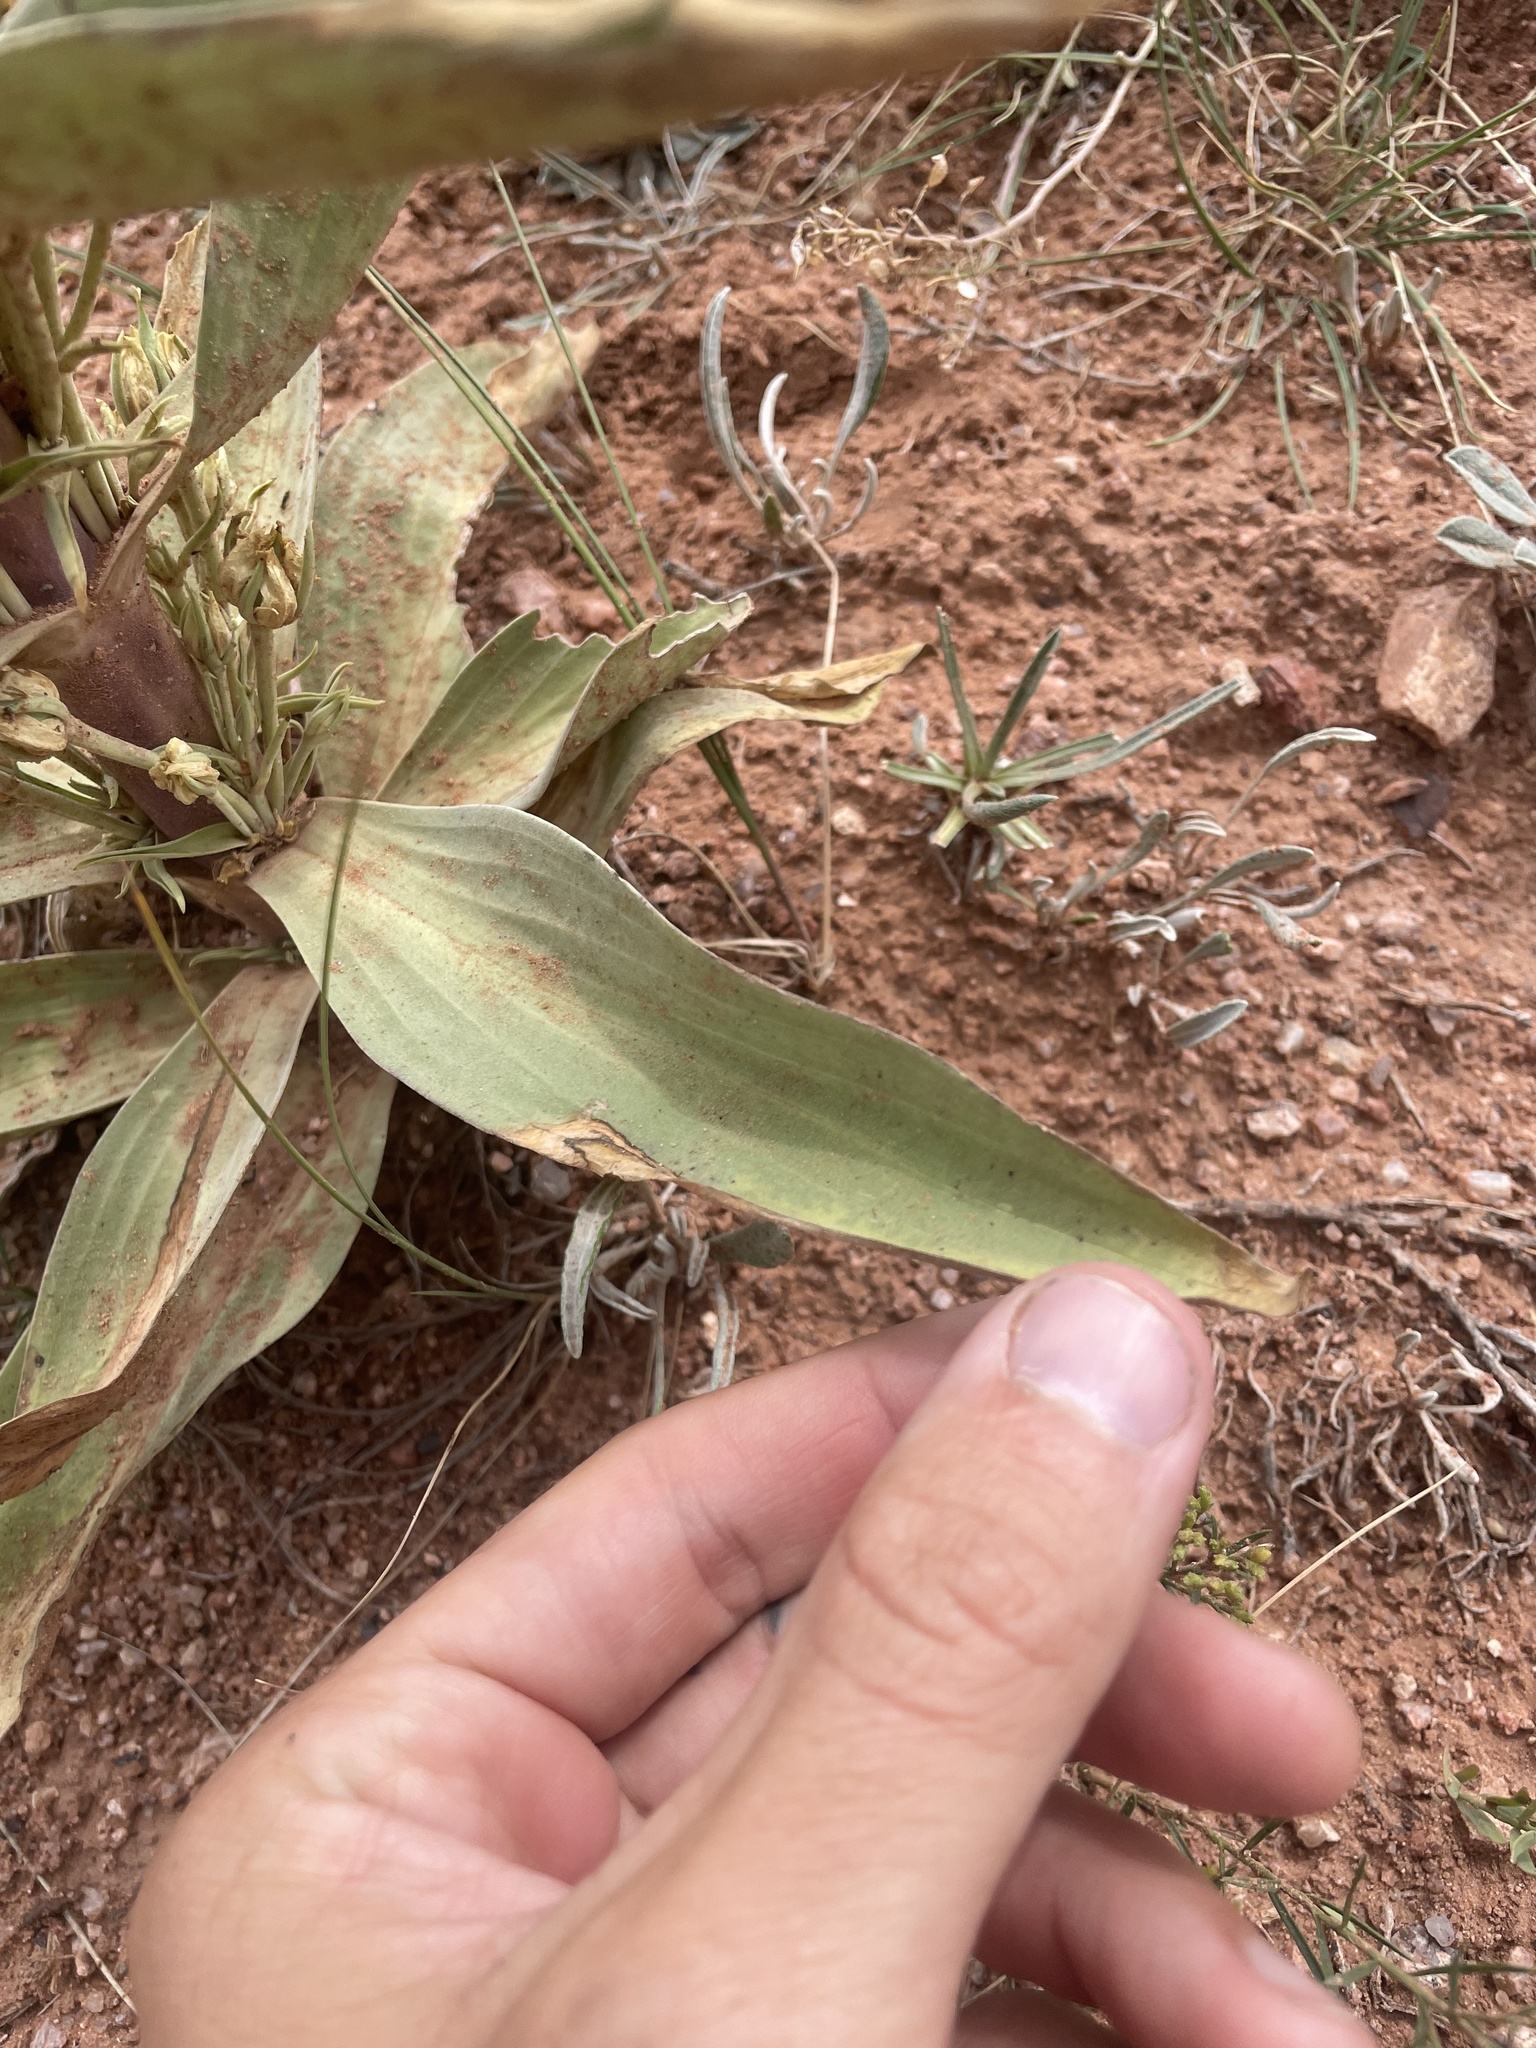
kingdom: Plantae
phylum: Tracheophyta
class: Magnoliopsida
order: Gentianales
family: Gentianaceae
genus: Frasera
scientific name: Frasera speciosa
